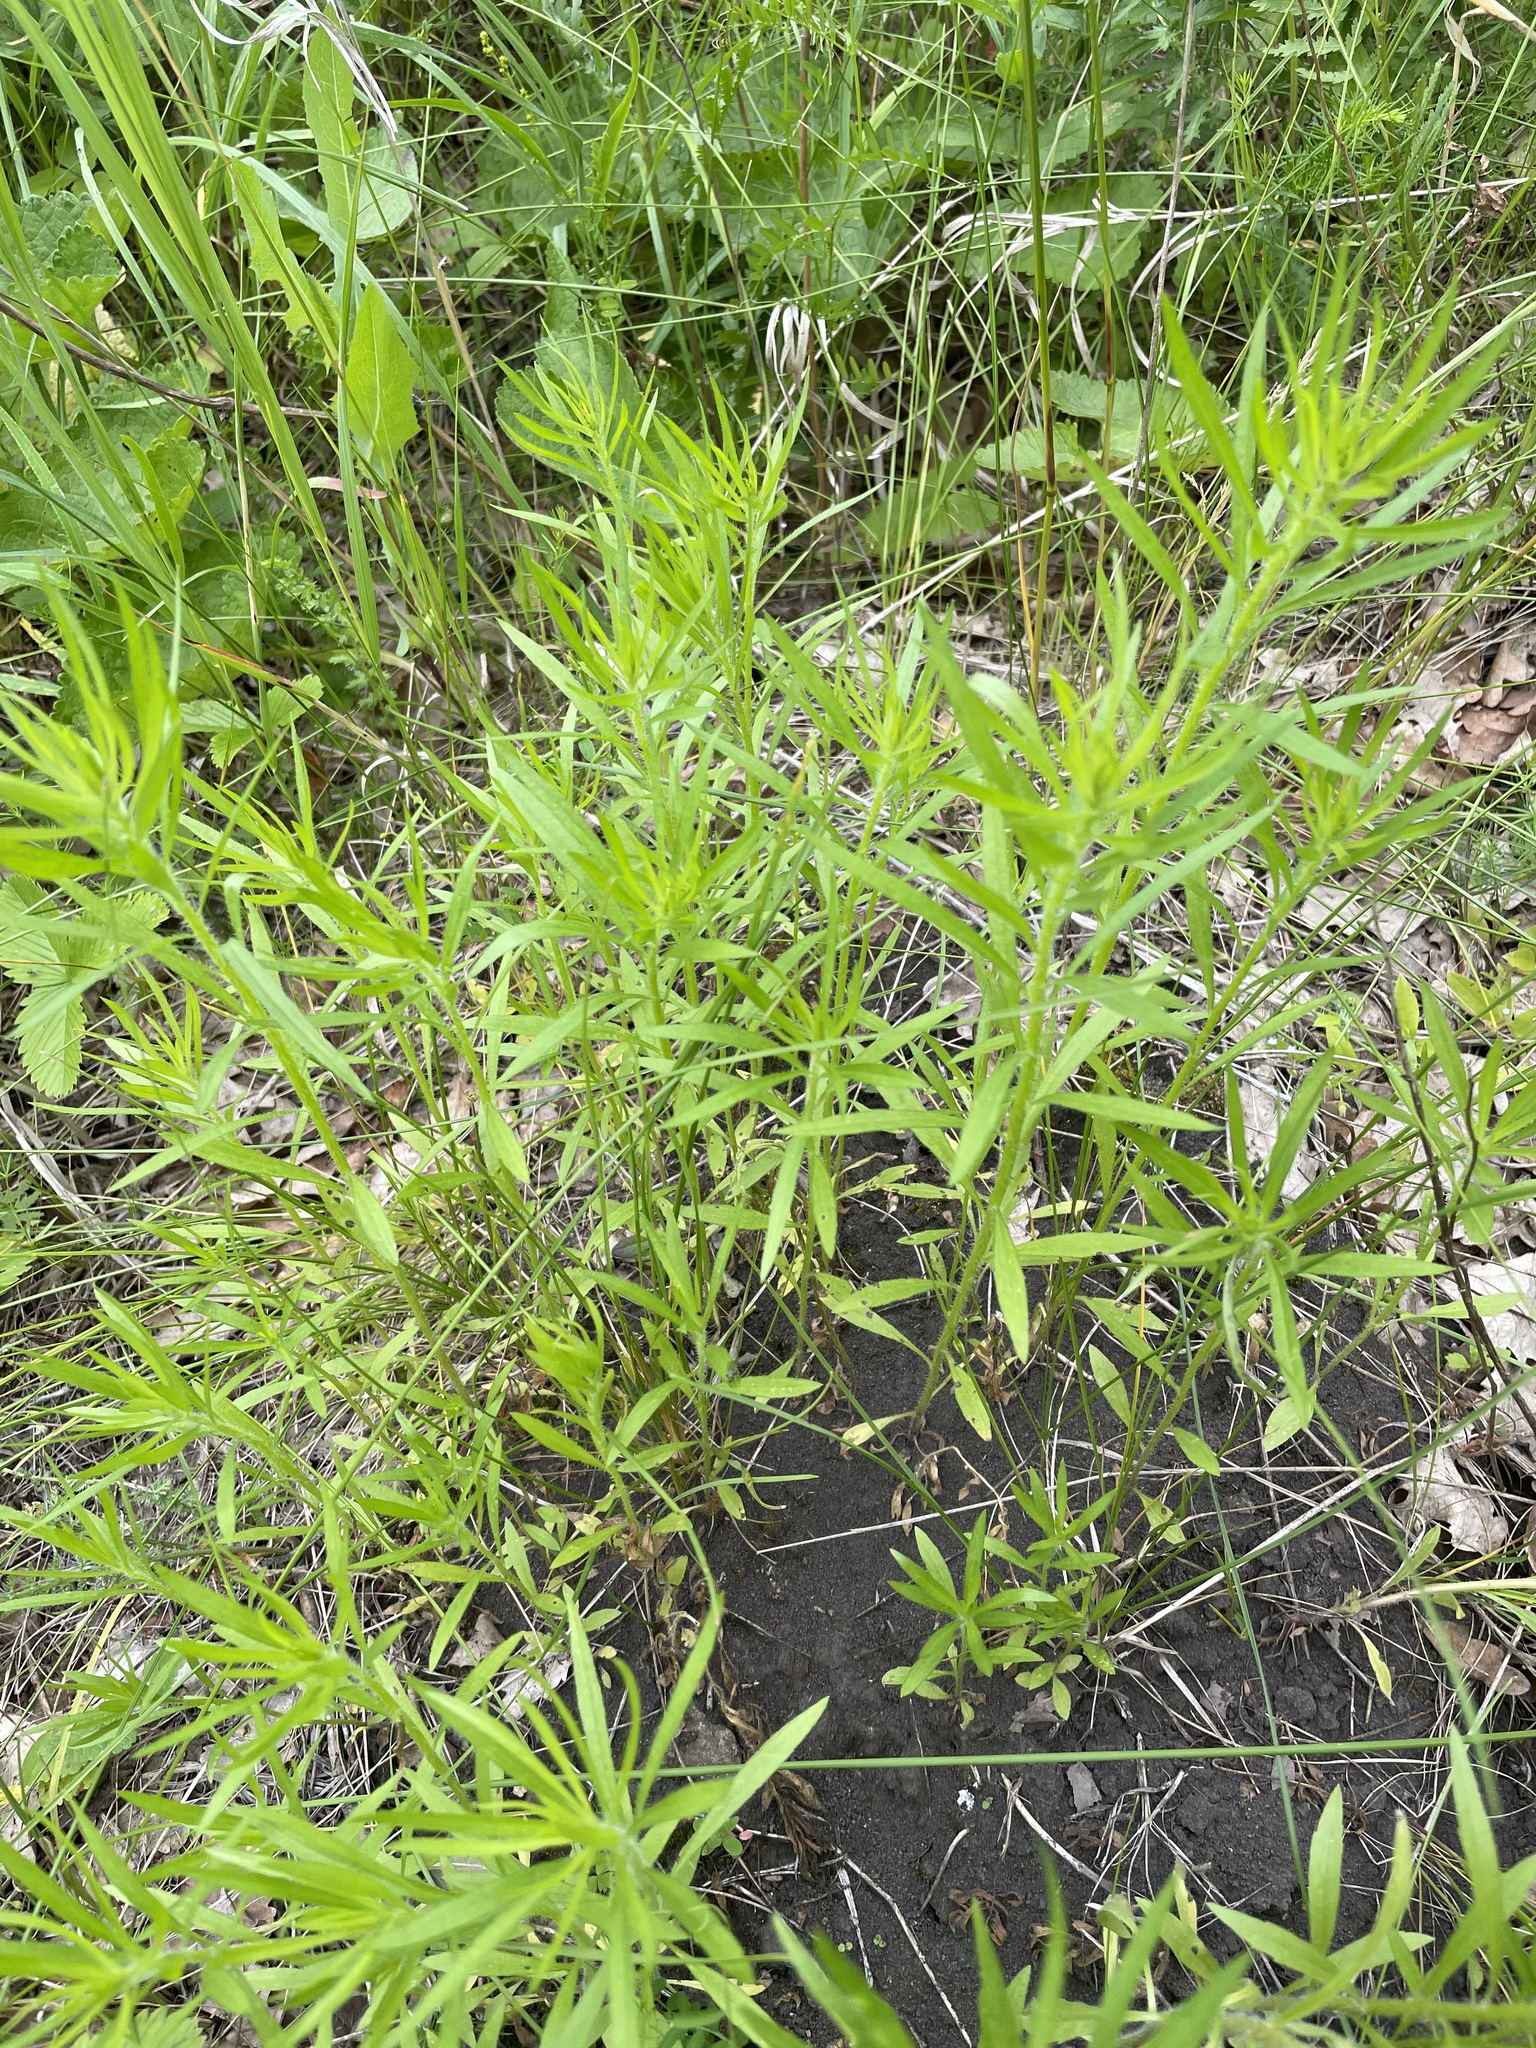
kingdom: Plantae
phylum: Tracheophyta
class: Magnoliopsida
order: Asterales
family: Asteraceae
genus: Erigeron
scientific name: Erigeron canadensis
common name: Canadian fleabane
